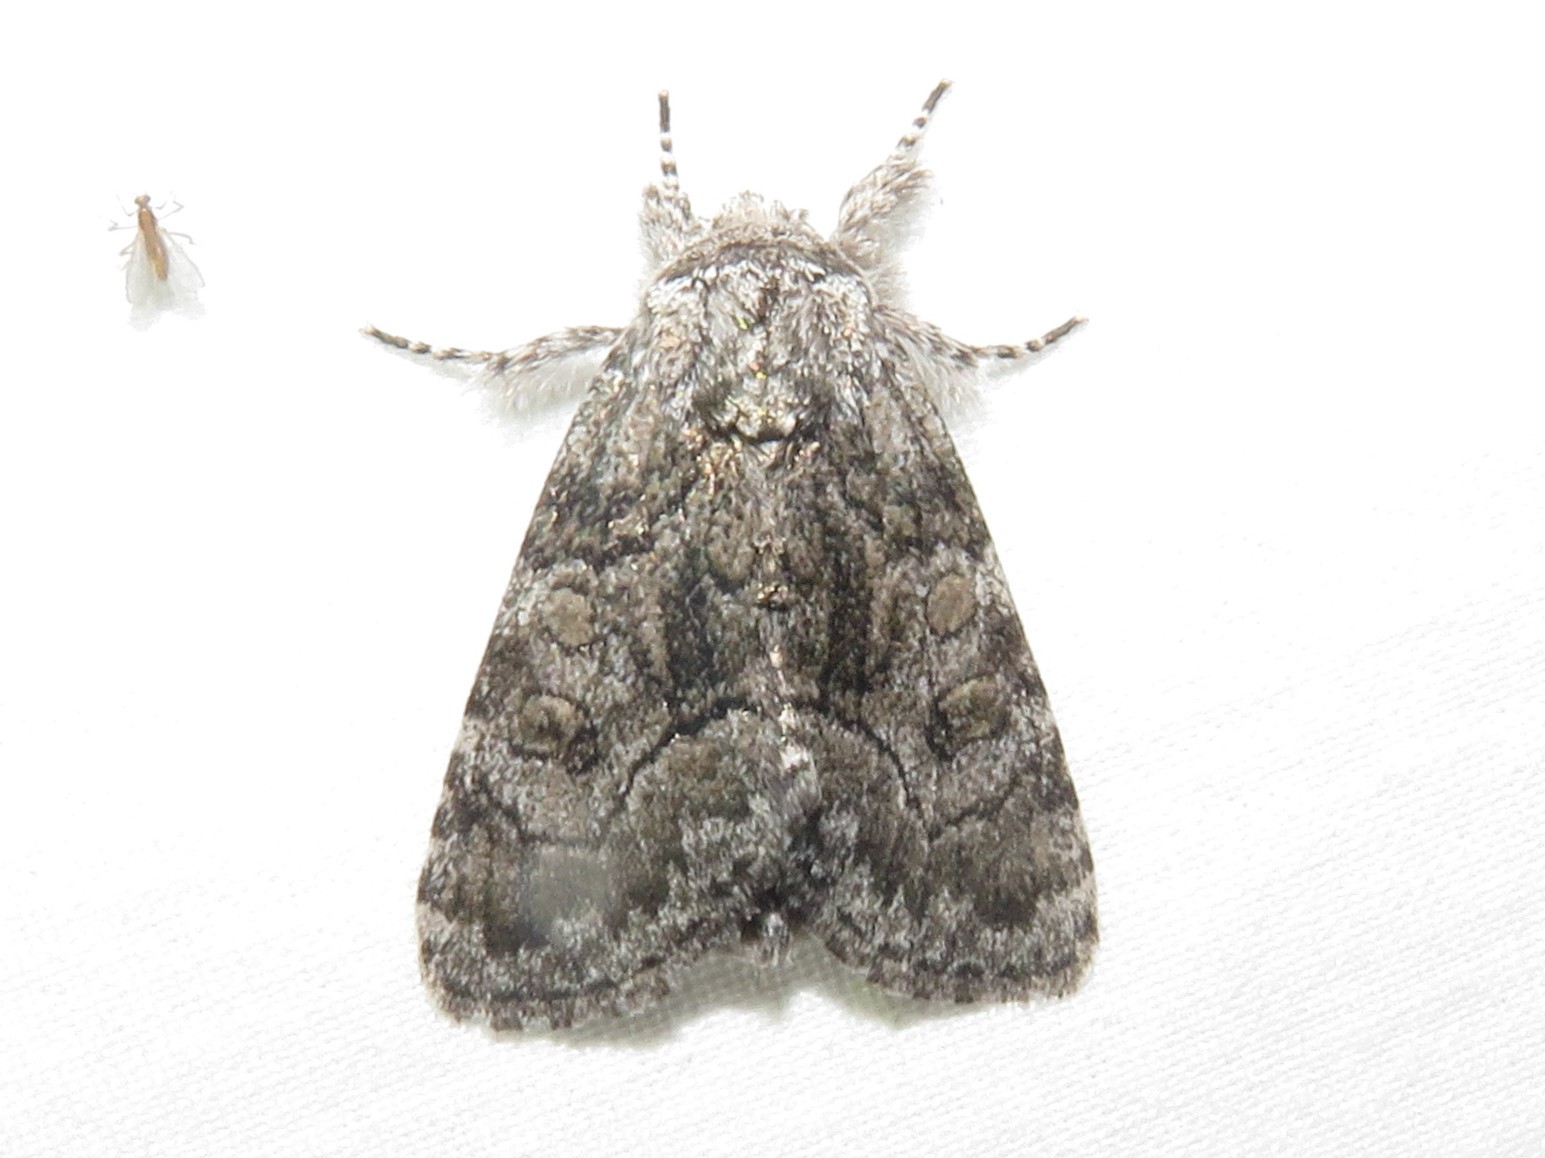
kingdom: Animalia
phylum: Arthropoda
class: Insecta
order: Lepidoptera
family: Noctuidae
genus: Raphia
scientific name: Raphia frater
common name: Brother
